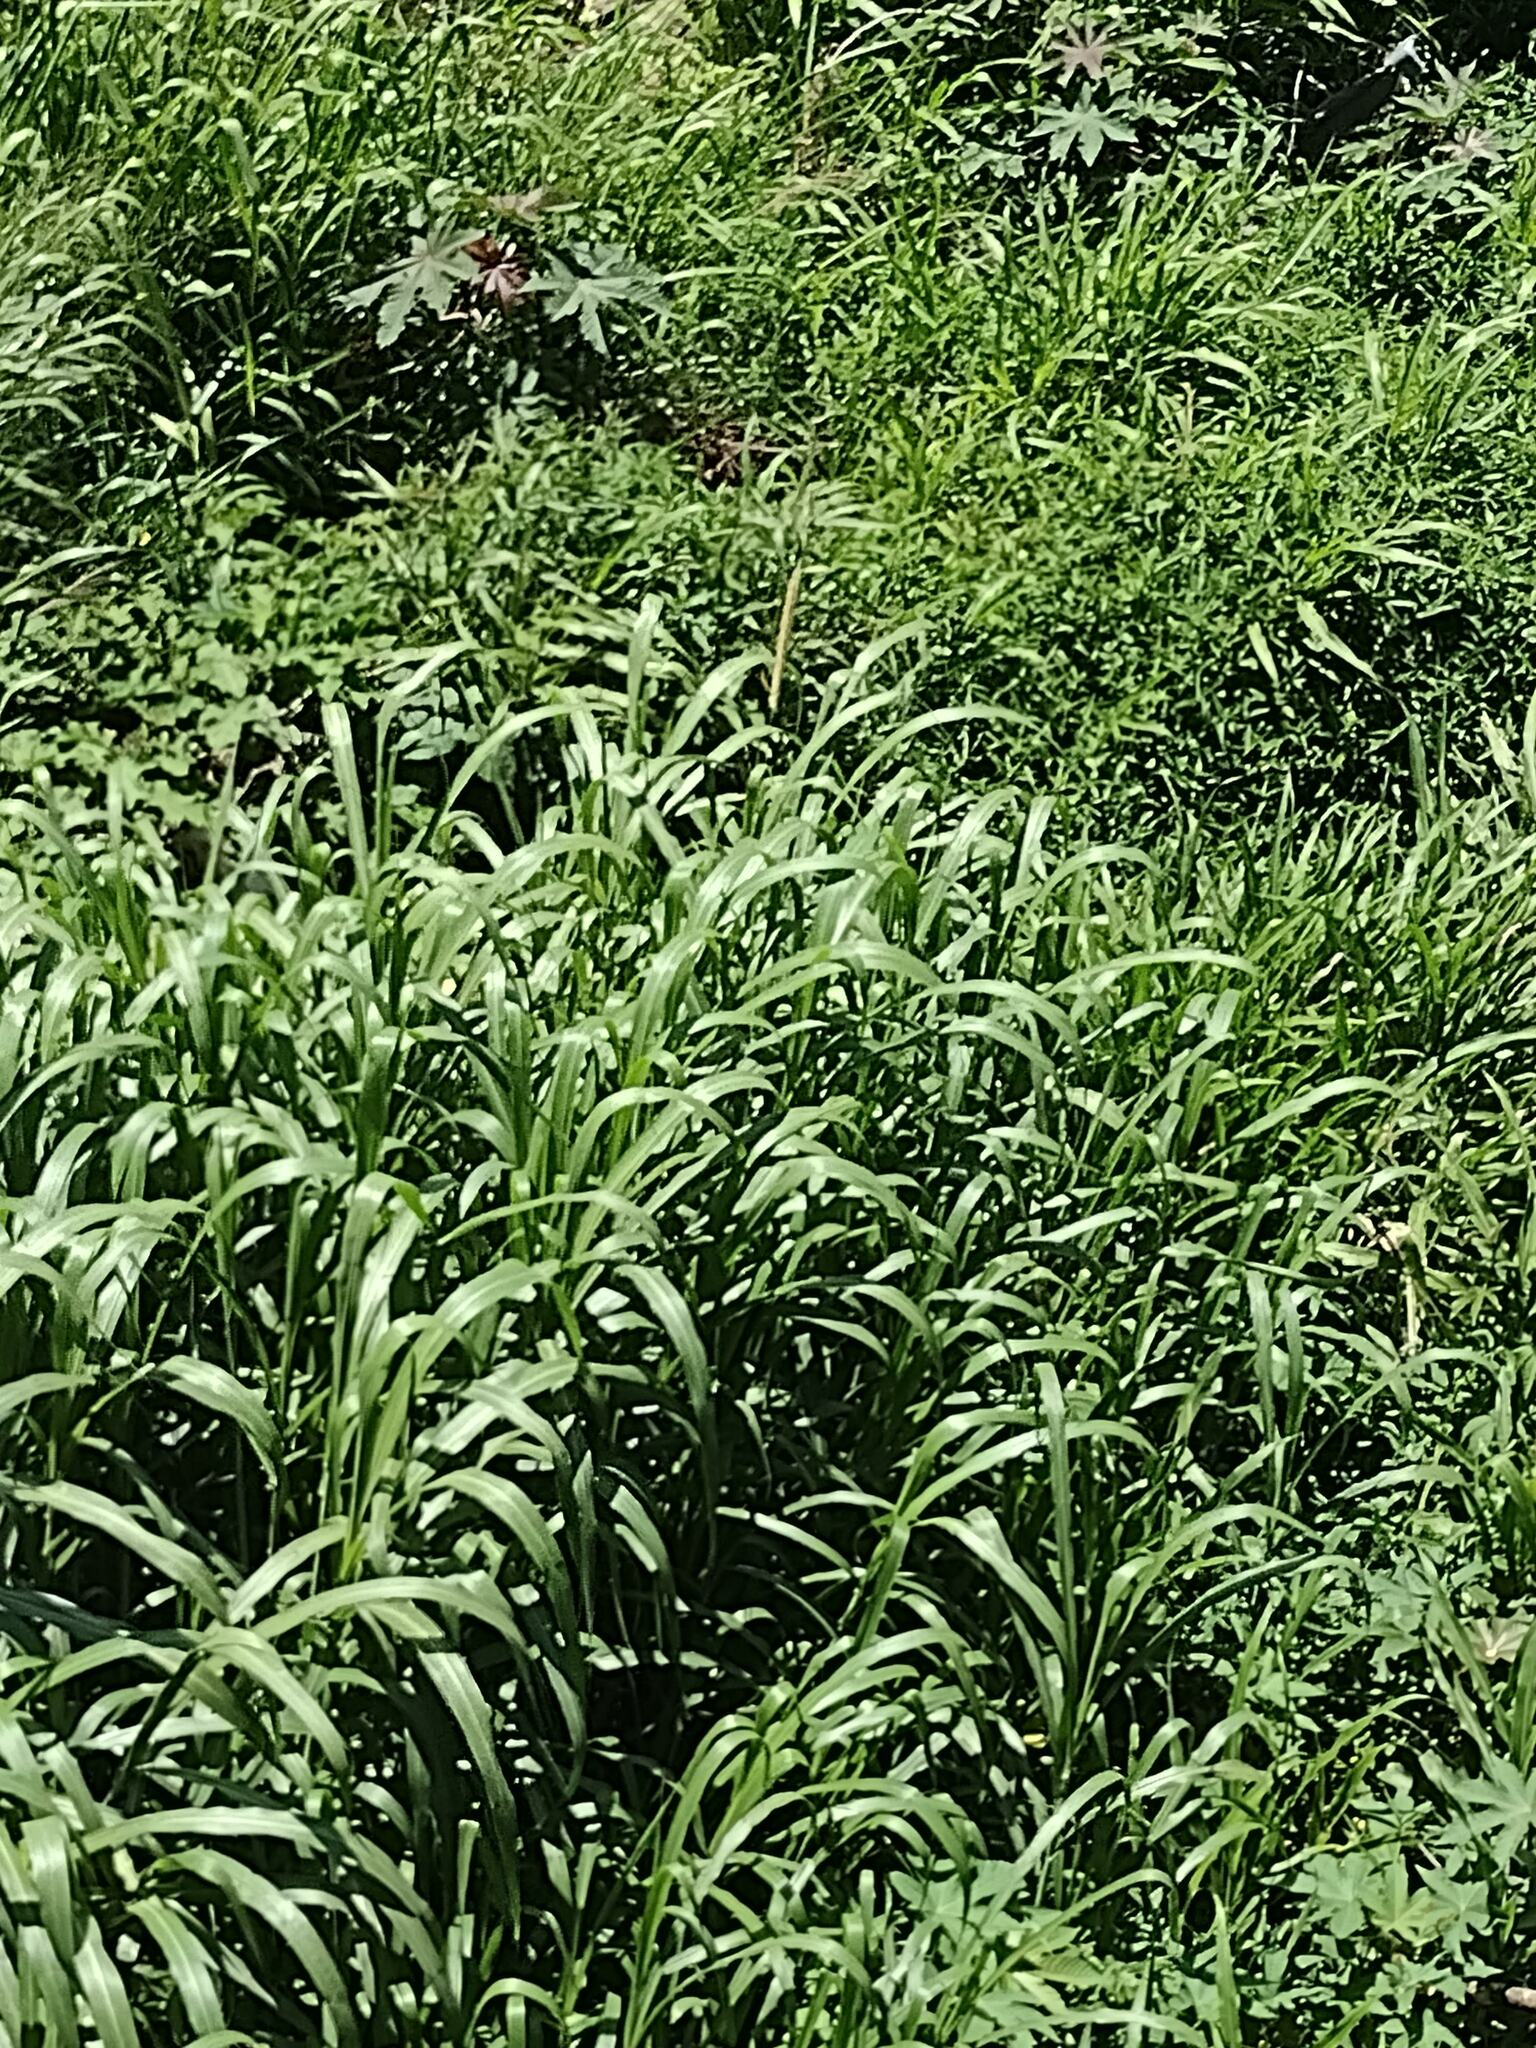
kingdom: Plantae
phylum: Tracheophyta
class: Liliopsida
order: Poales
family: Poaceae
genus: Cenchrus
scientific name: Cenchrus purpureus
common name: Elephant grass
